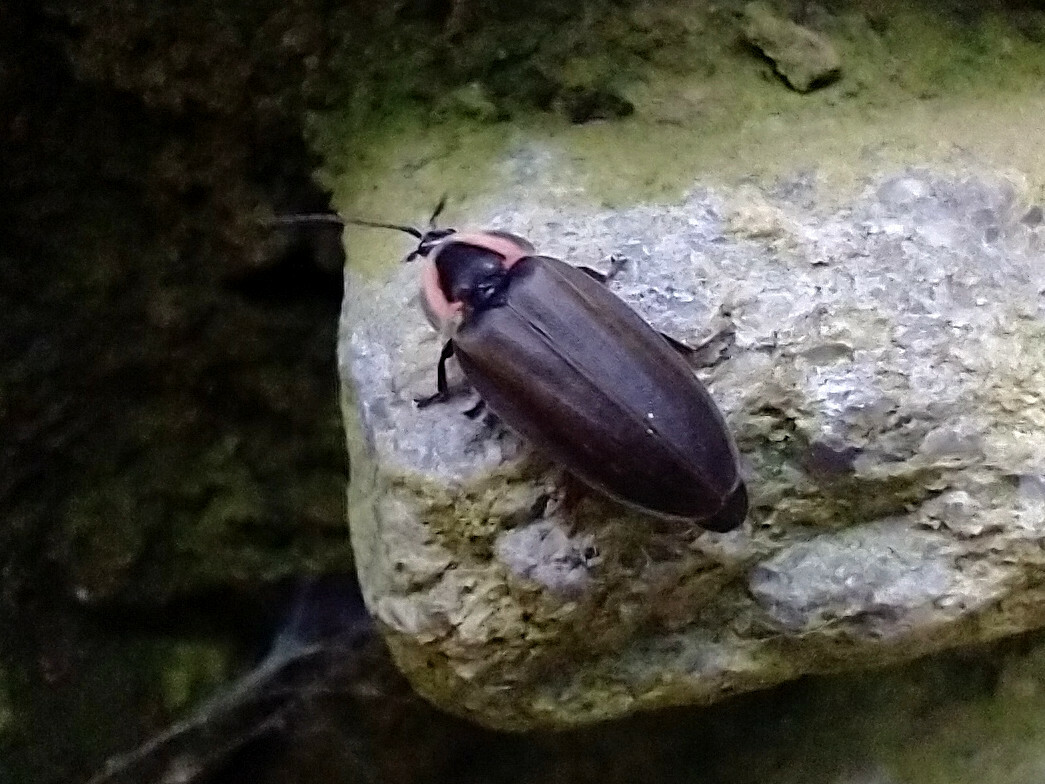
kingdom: Animalia
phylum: Arthropoda
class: Insecta
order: Coleoptera
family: Lampyridae
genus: Photinus
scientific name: Photinus corrusca
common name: Winter firefly
